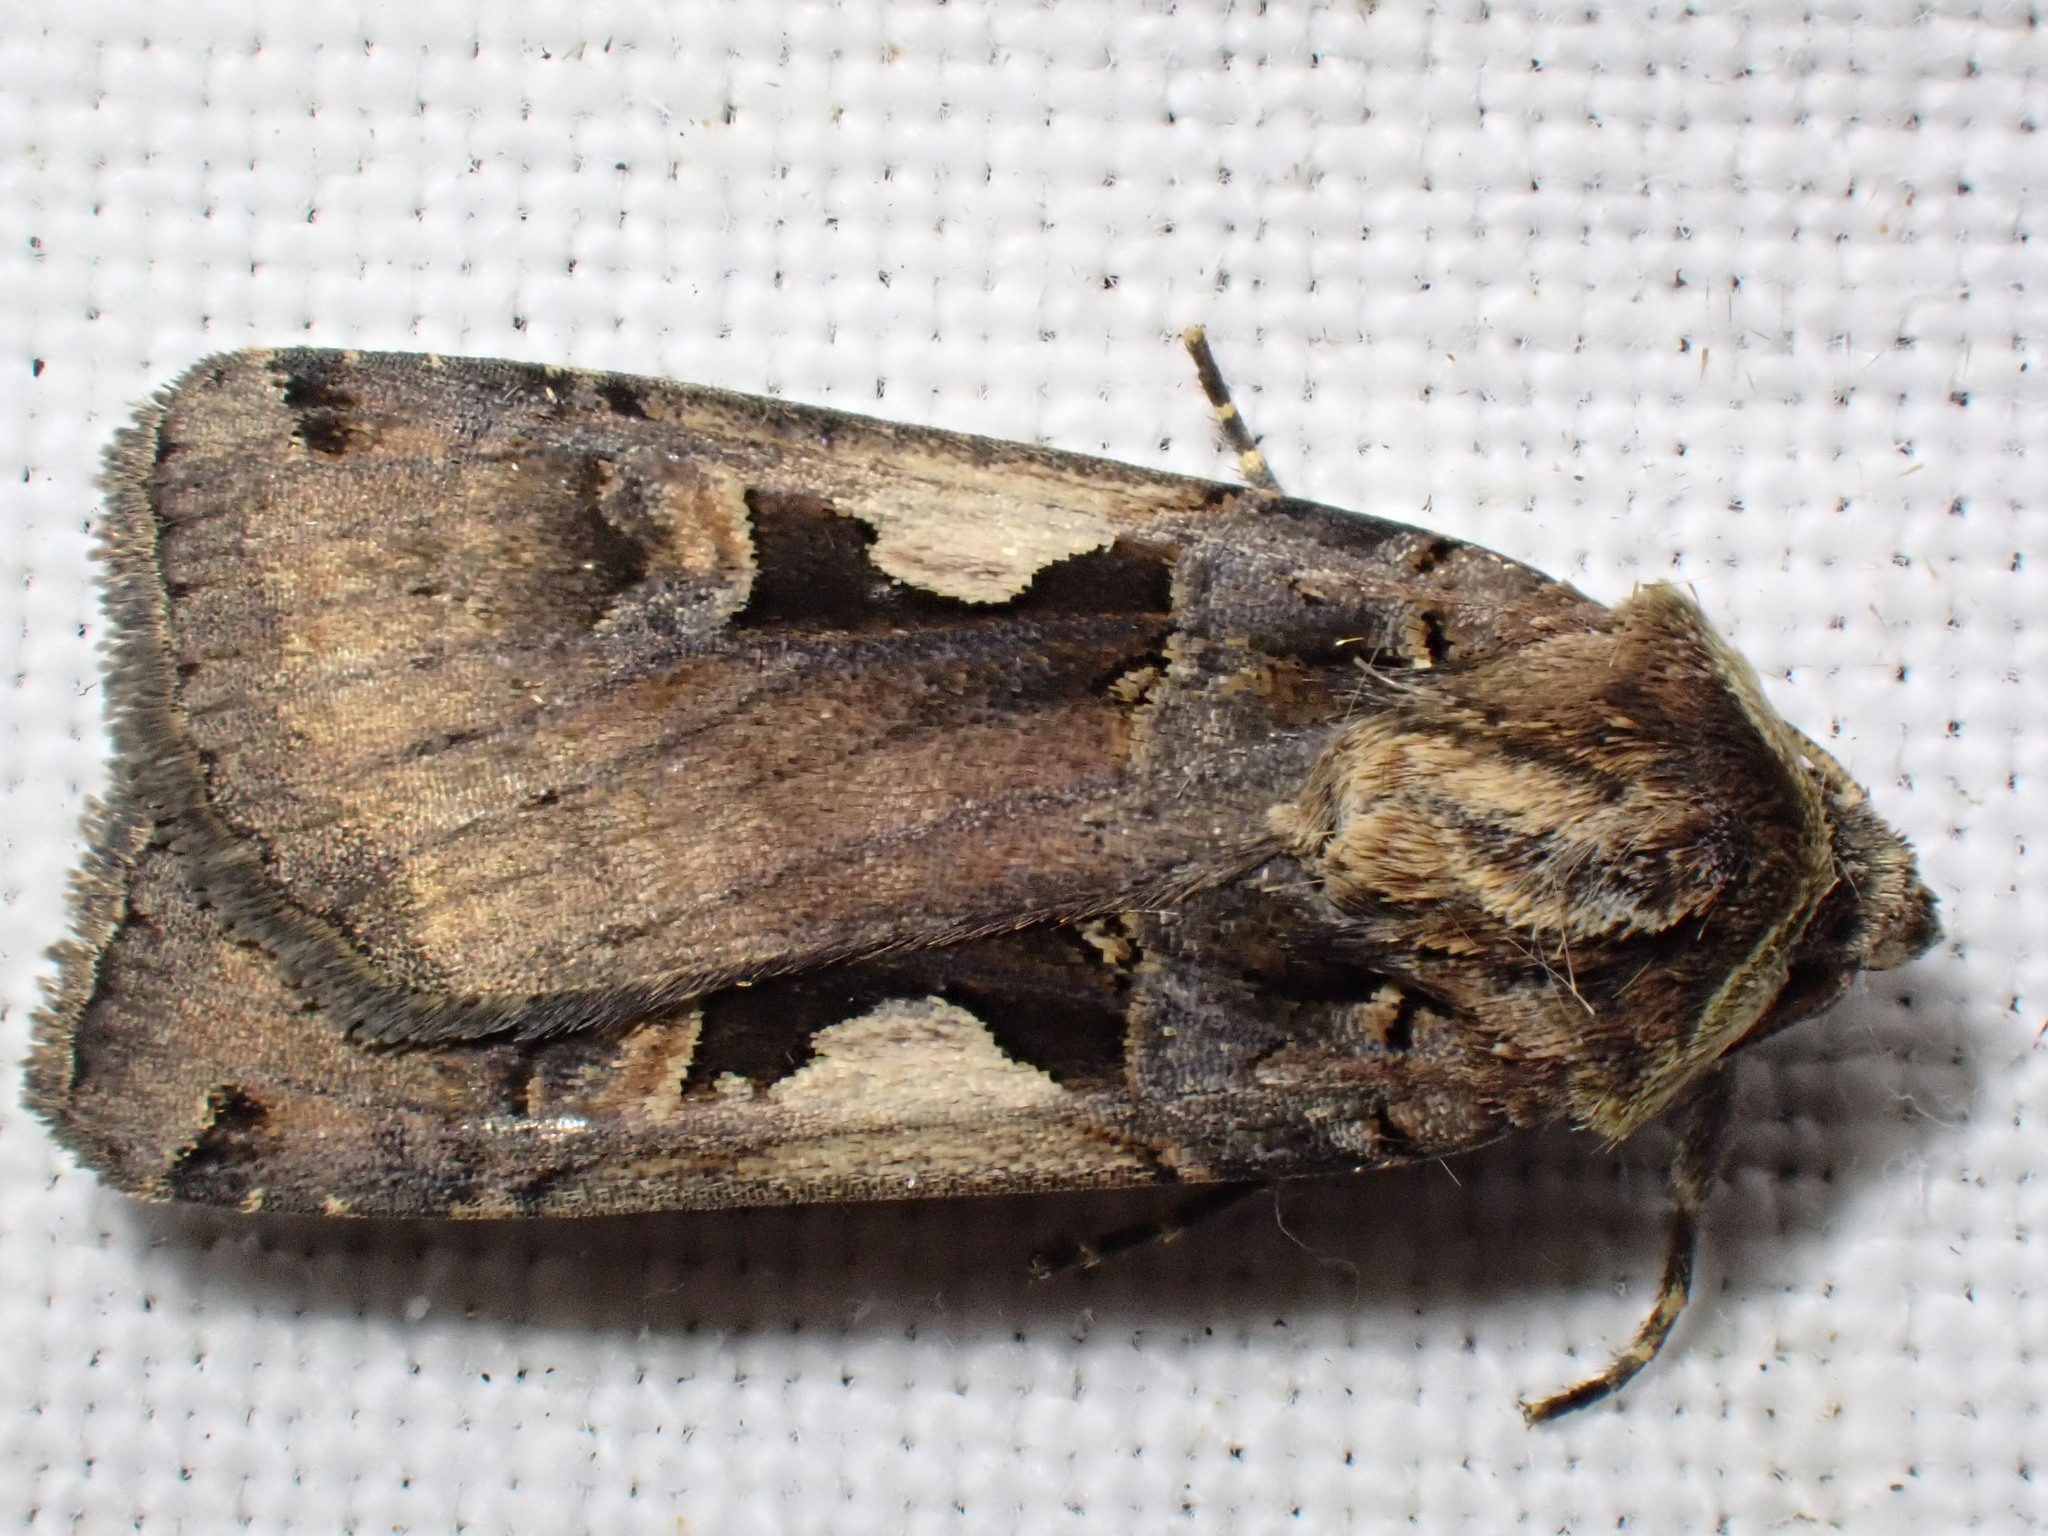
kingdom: Animalia
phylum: Arthropoda
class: Insecta
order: Lepidoptera
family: Noctuidae
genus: Xestia
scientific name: Xestia c-nigrum
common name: Setaceous hebrew character
